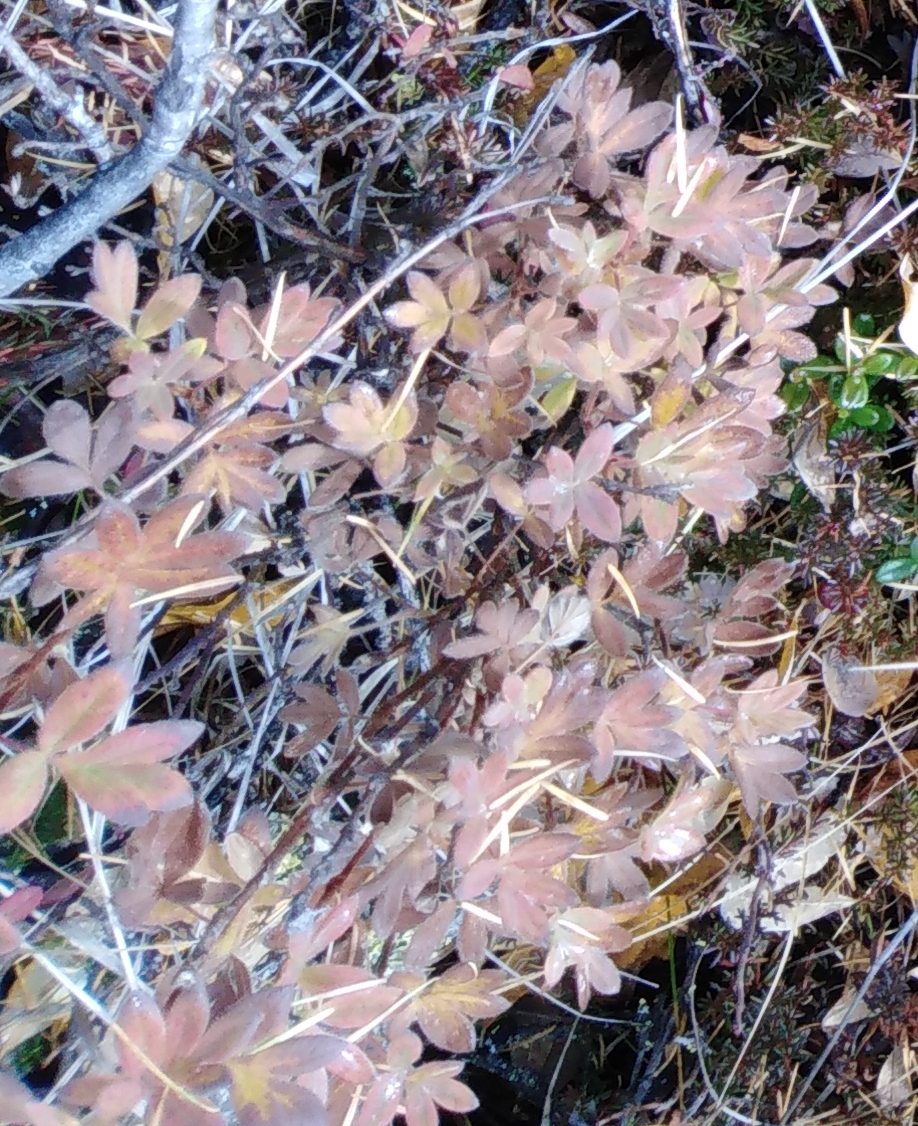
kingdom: Plantae
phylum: Tracheophyta
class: Magnoliopsida
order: Rosales
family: Rosaceae
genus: Dasiphora
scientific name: Dasiphora fruticosa
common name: Shrubby cinquefoil
